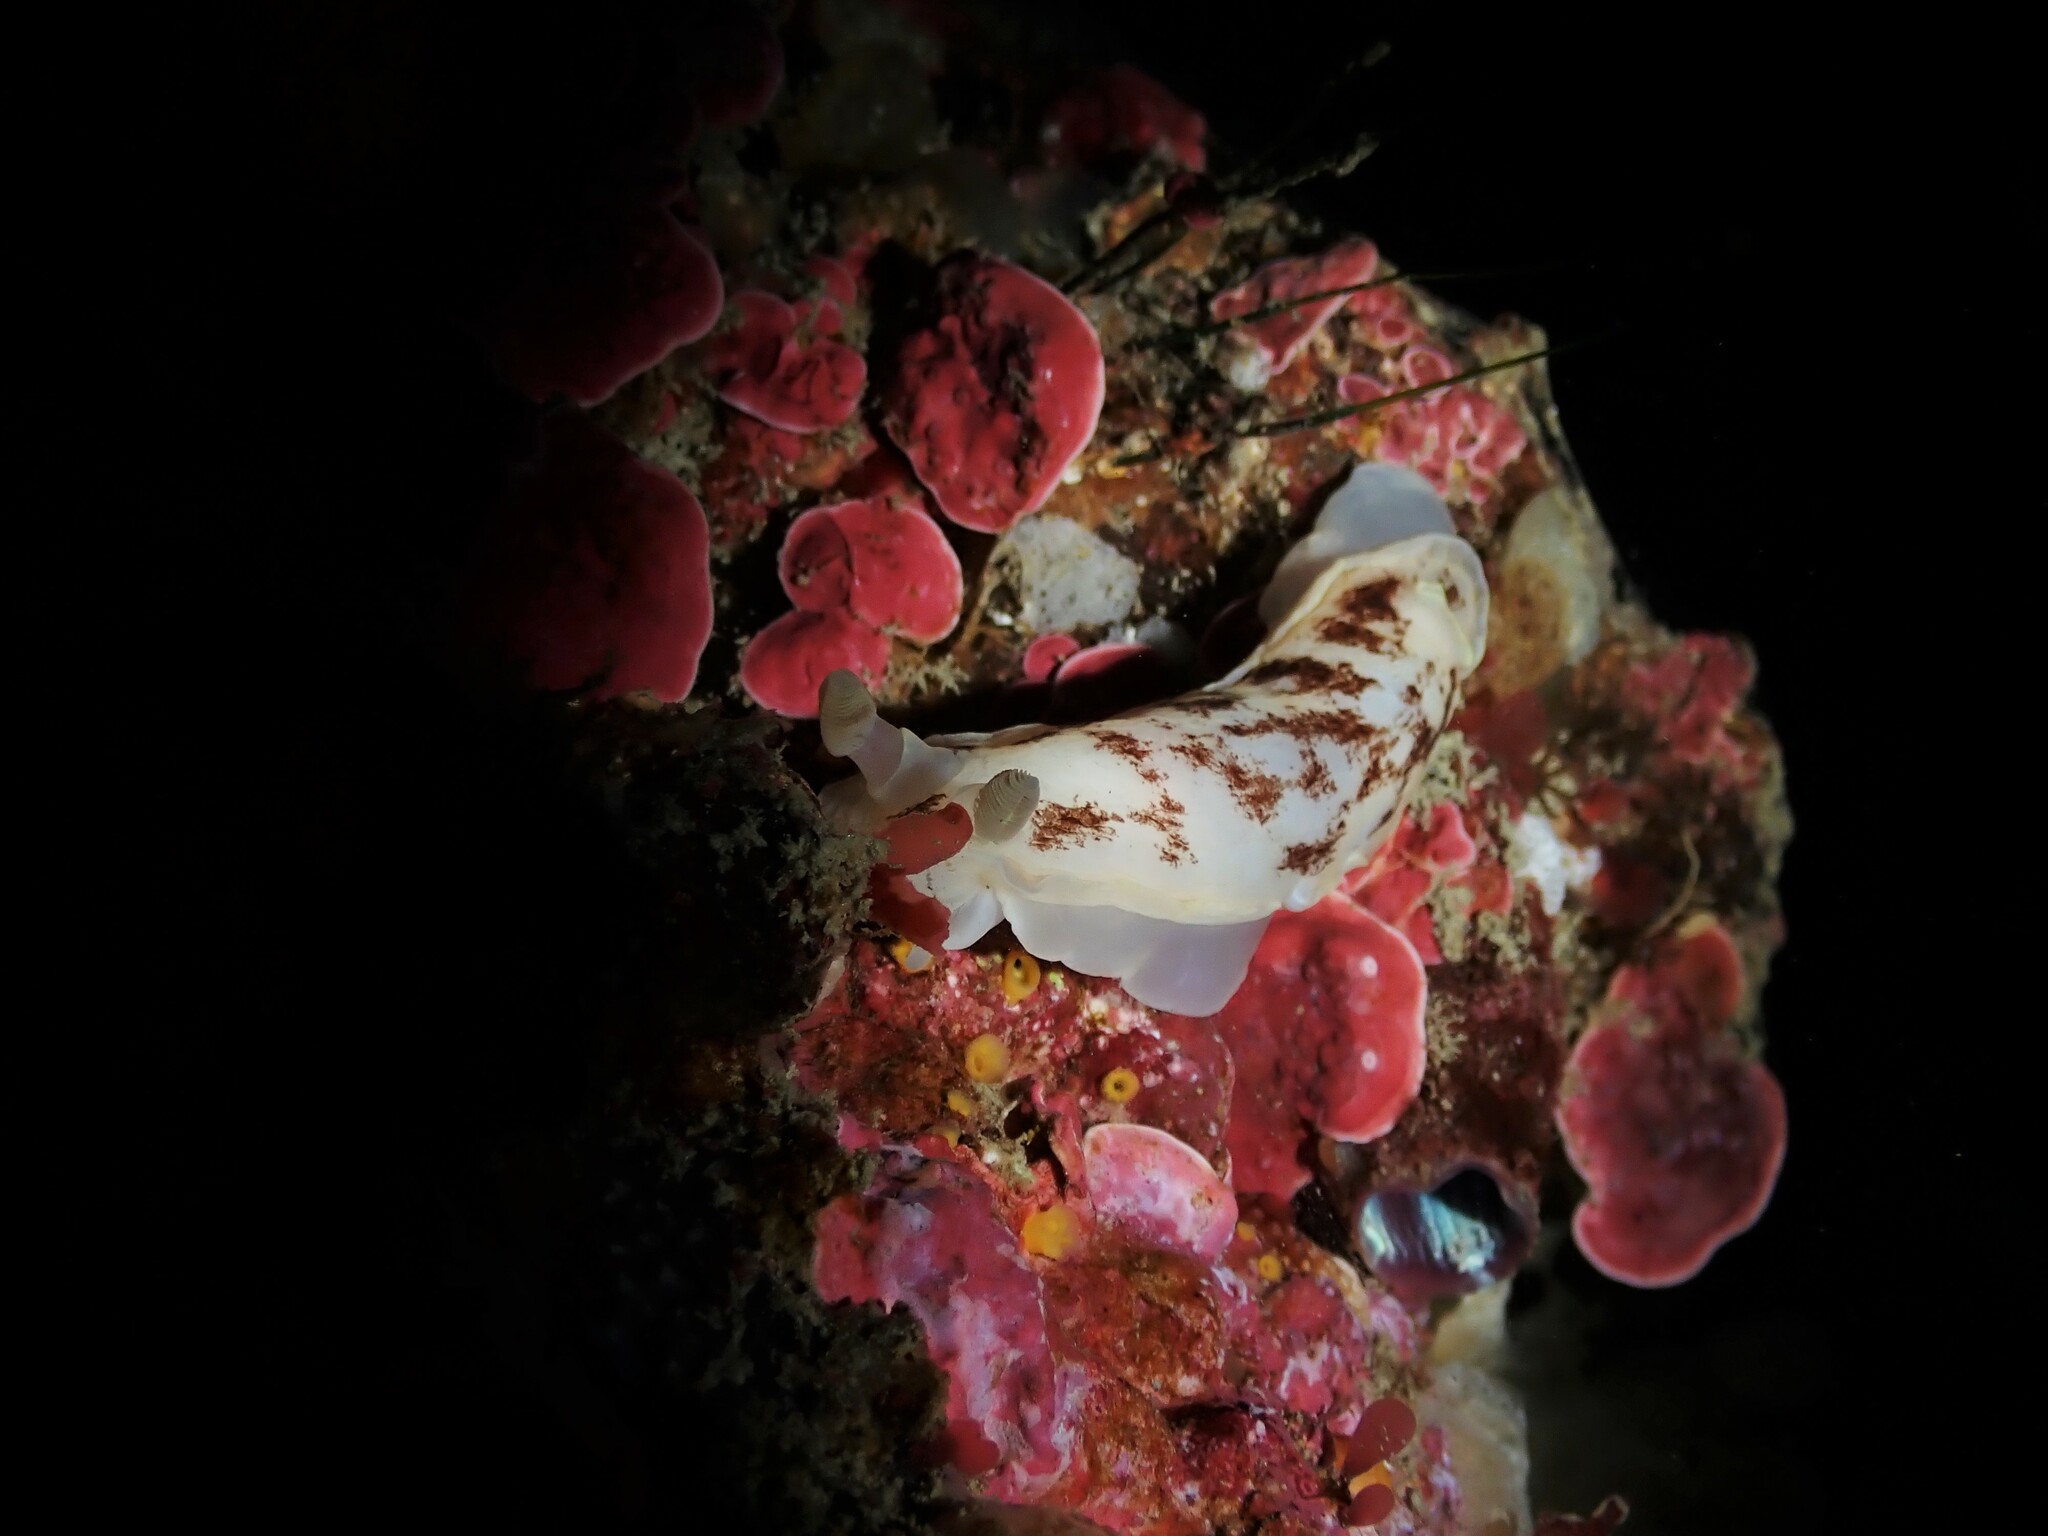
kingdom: Animalia
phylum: Mollusca
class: Gastropoda
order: Nudibranchia
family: Dorididae
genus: Aphelodoris
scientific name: Aphelodoris luctuosa
